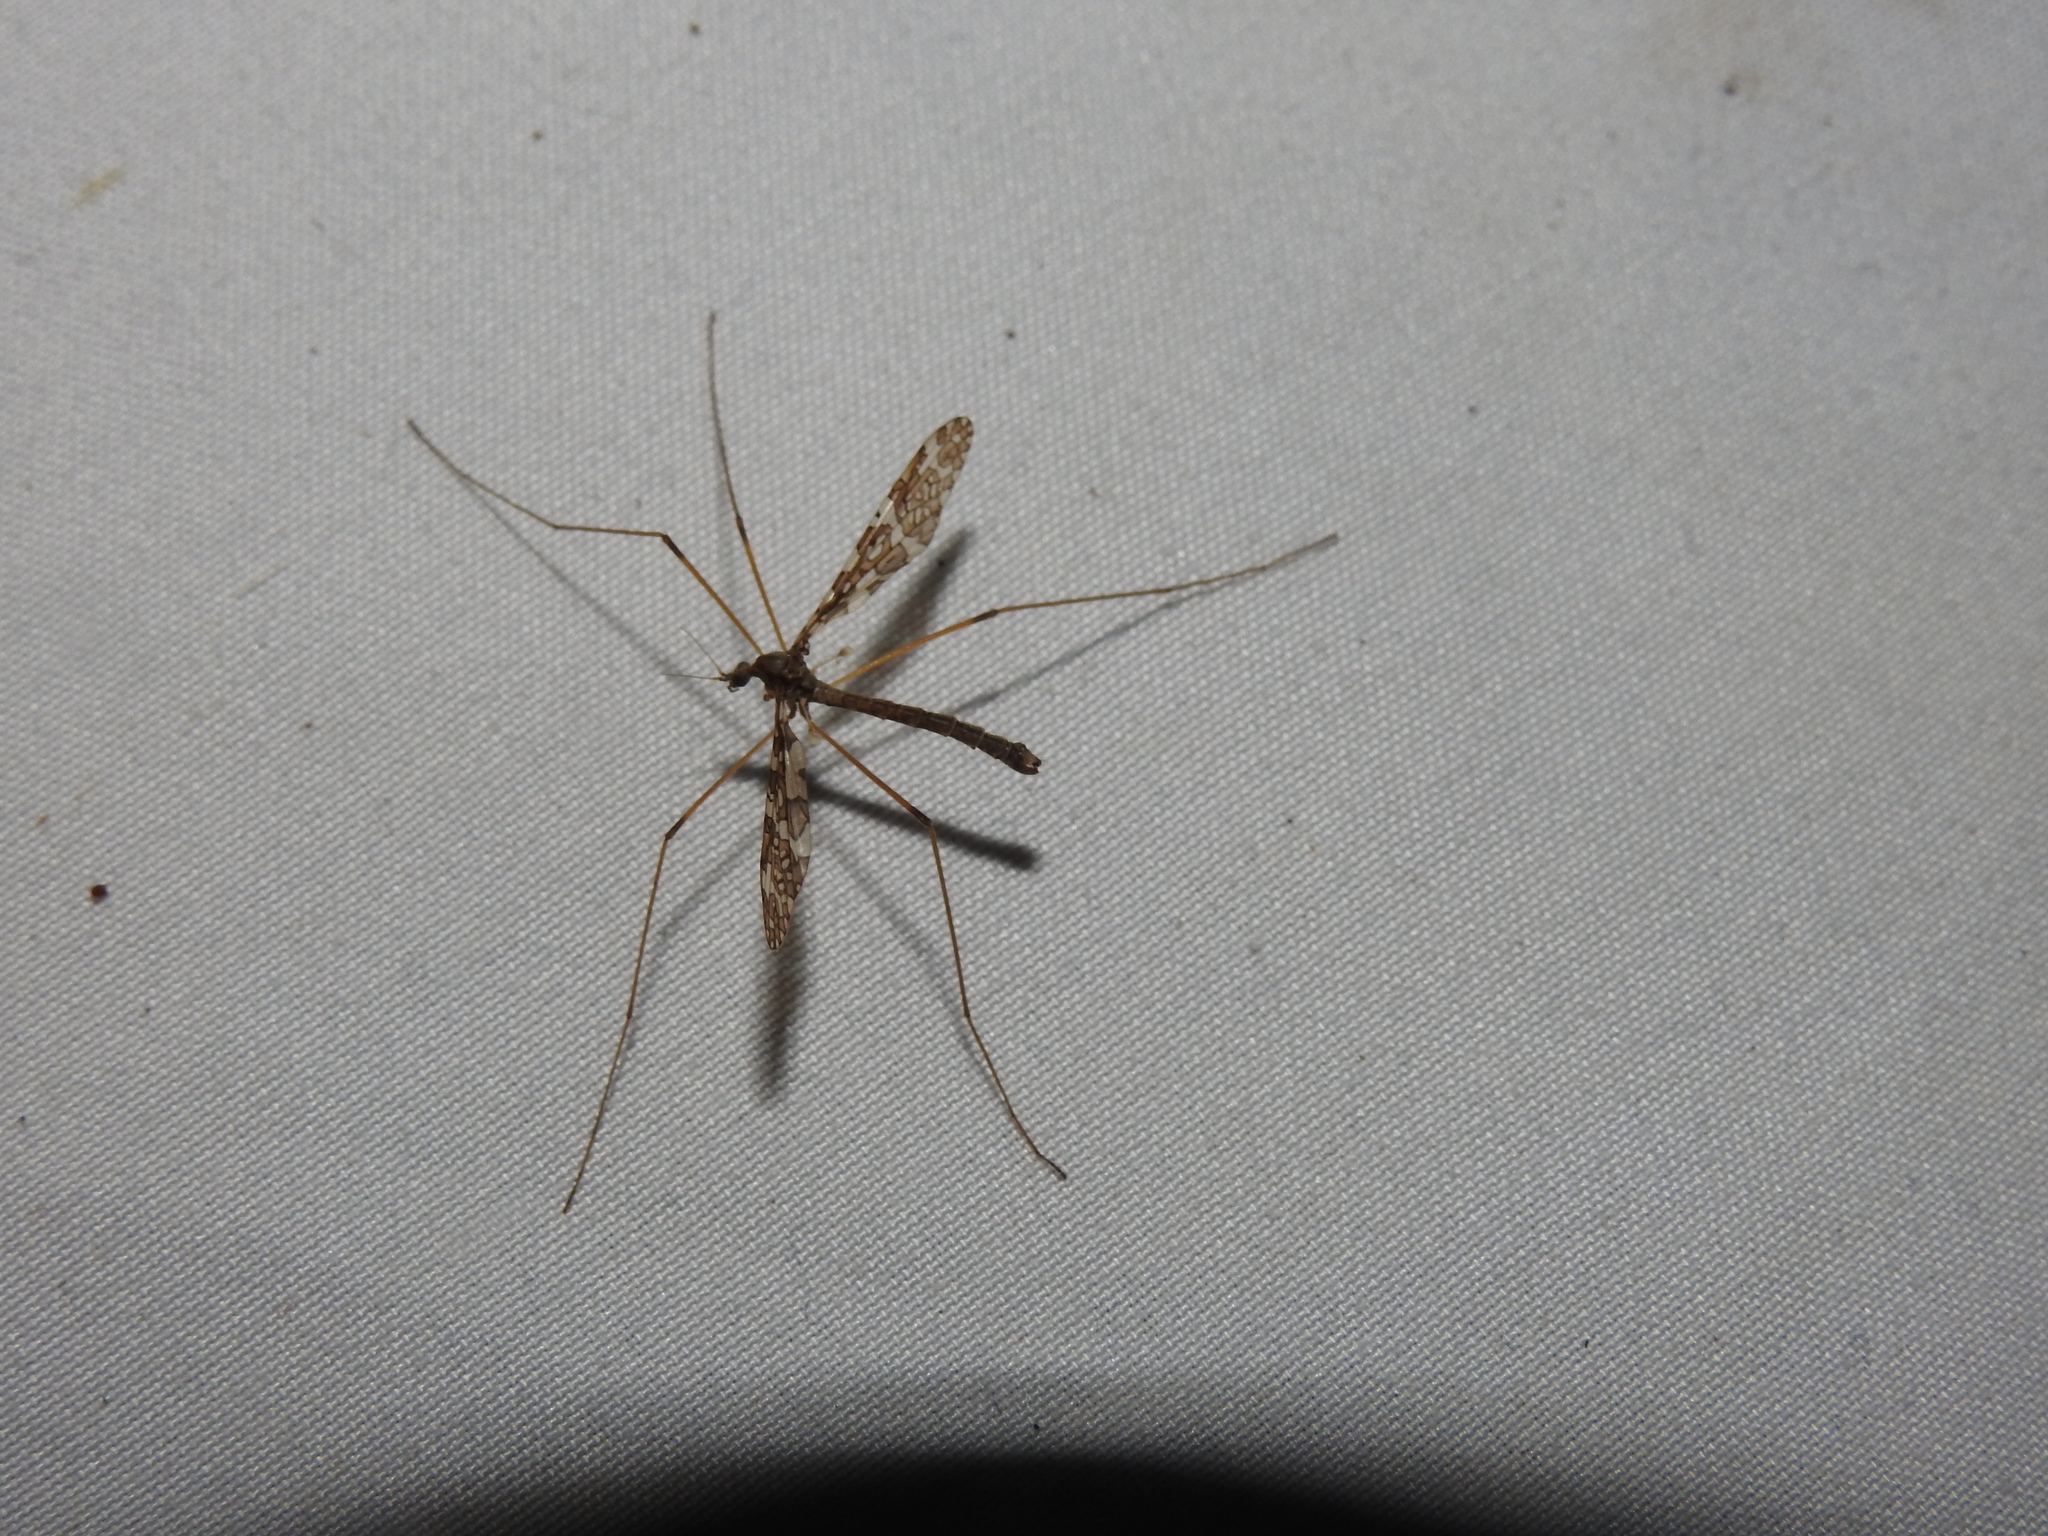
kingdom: Animalia
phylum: Arthropoda
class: Insecta
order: Diptera
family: Limoniidae
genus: Epiphragma
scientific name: Epiphragma fasciapenne
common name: Band-winged crane fly
